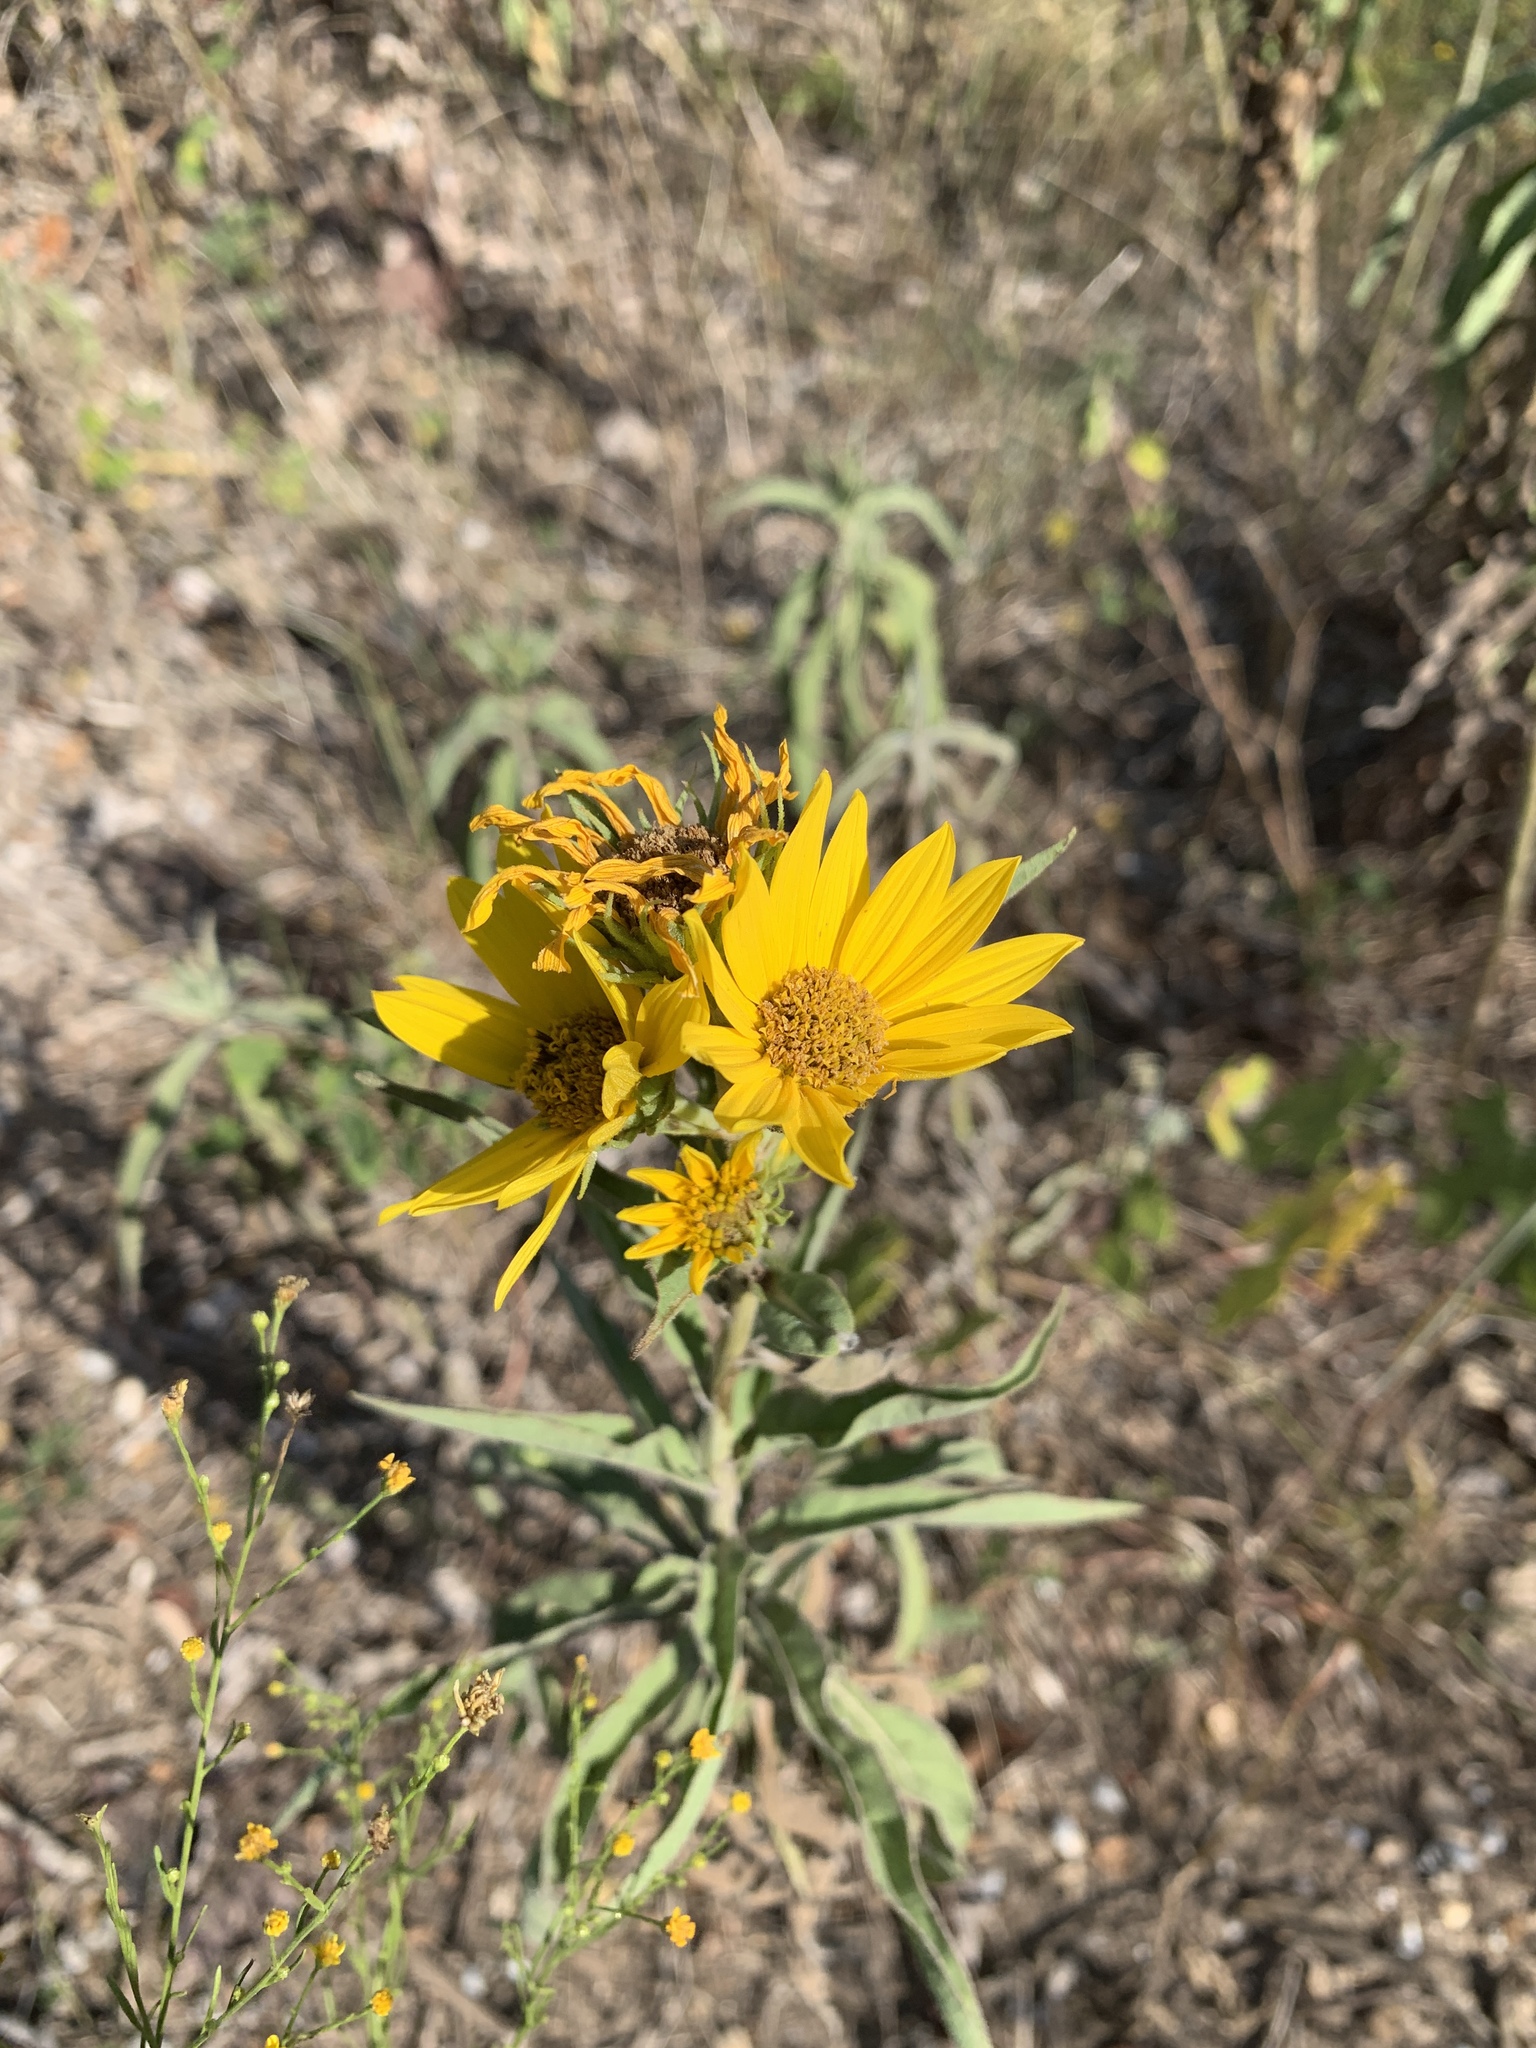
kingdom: Plantae
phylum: Tracheophyta
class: Magnoliopsida
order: Asterales
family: Asteraceae
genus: Helianthus
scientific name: Helianthus maximiliani
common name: Maximilian's sunflower
